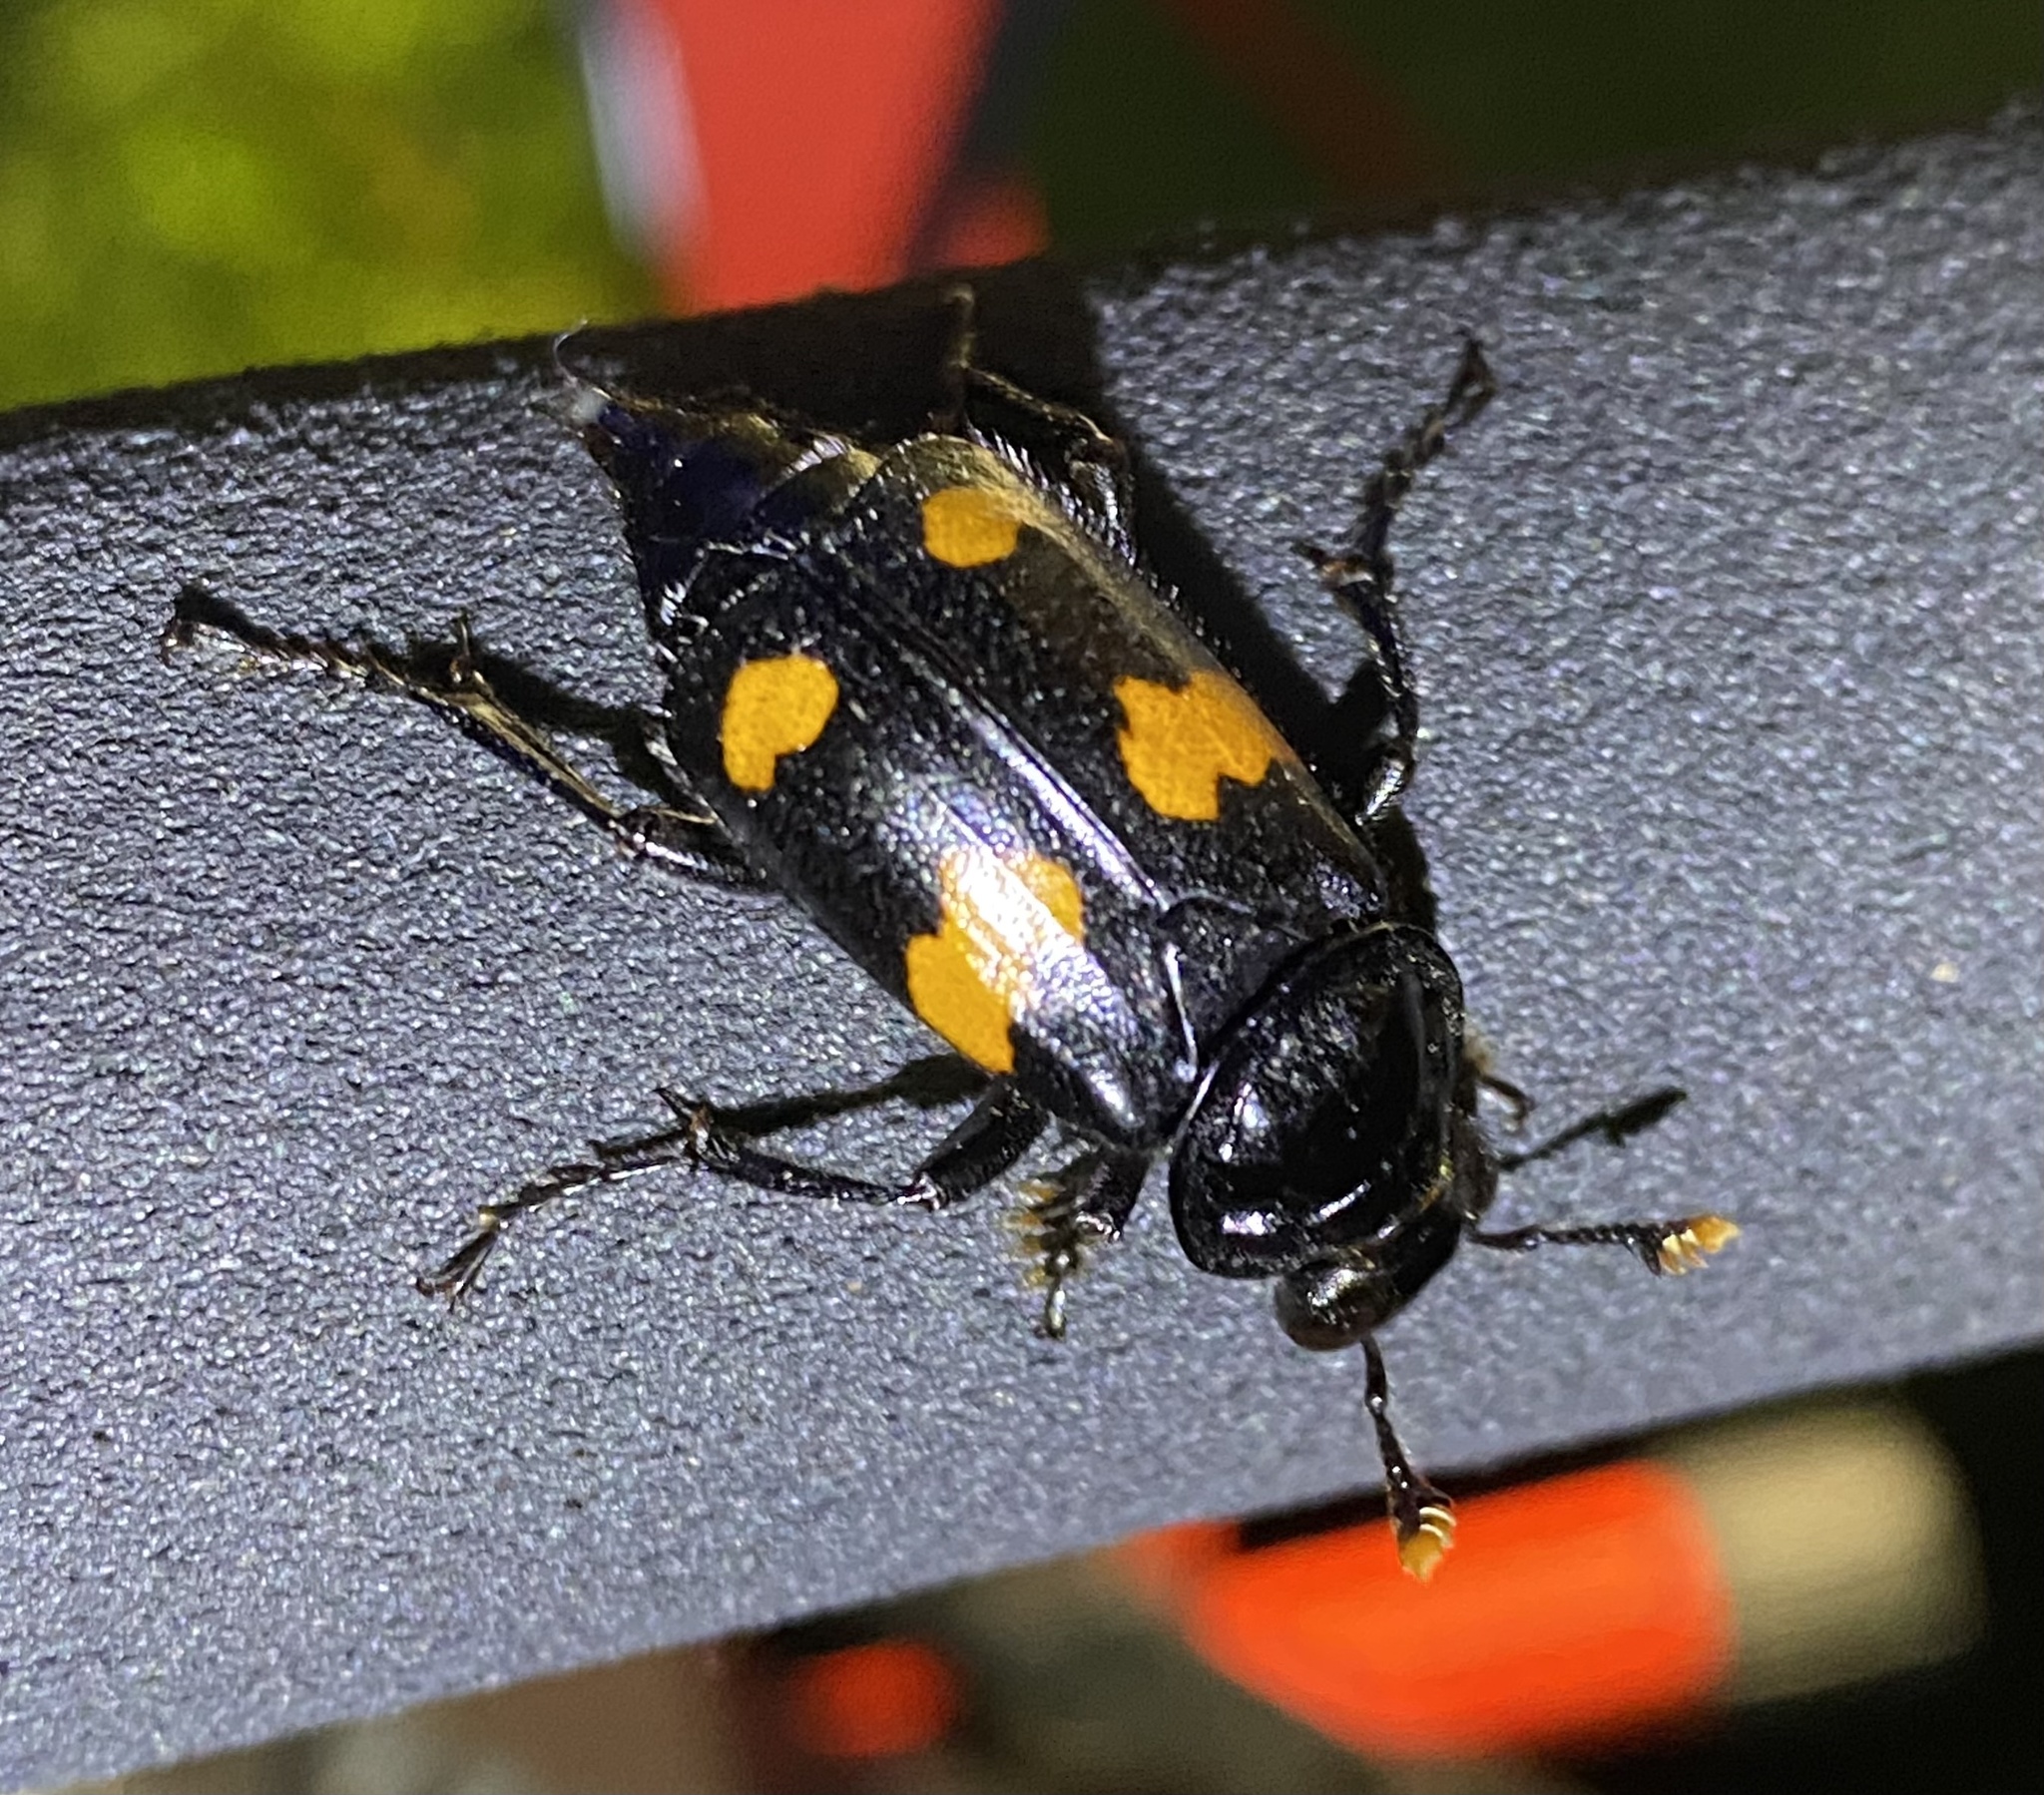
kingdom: Animalia
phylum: Arthropoda
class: Insecta
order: Coleoptera
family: Staphylinidae
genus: Nicrophorus
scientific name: Nicrophorus orbicollis
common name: Roundneck sexton beetle
